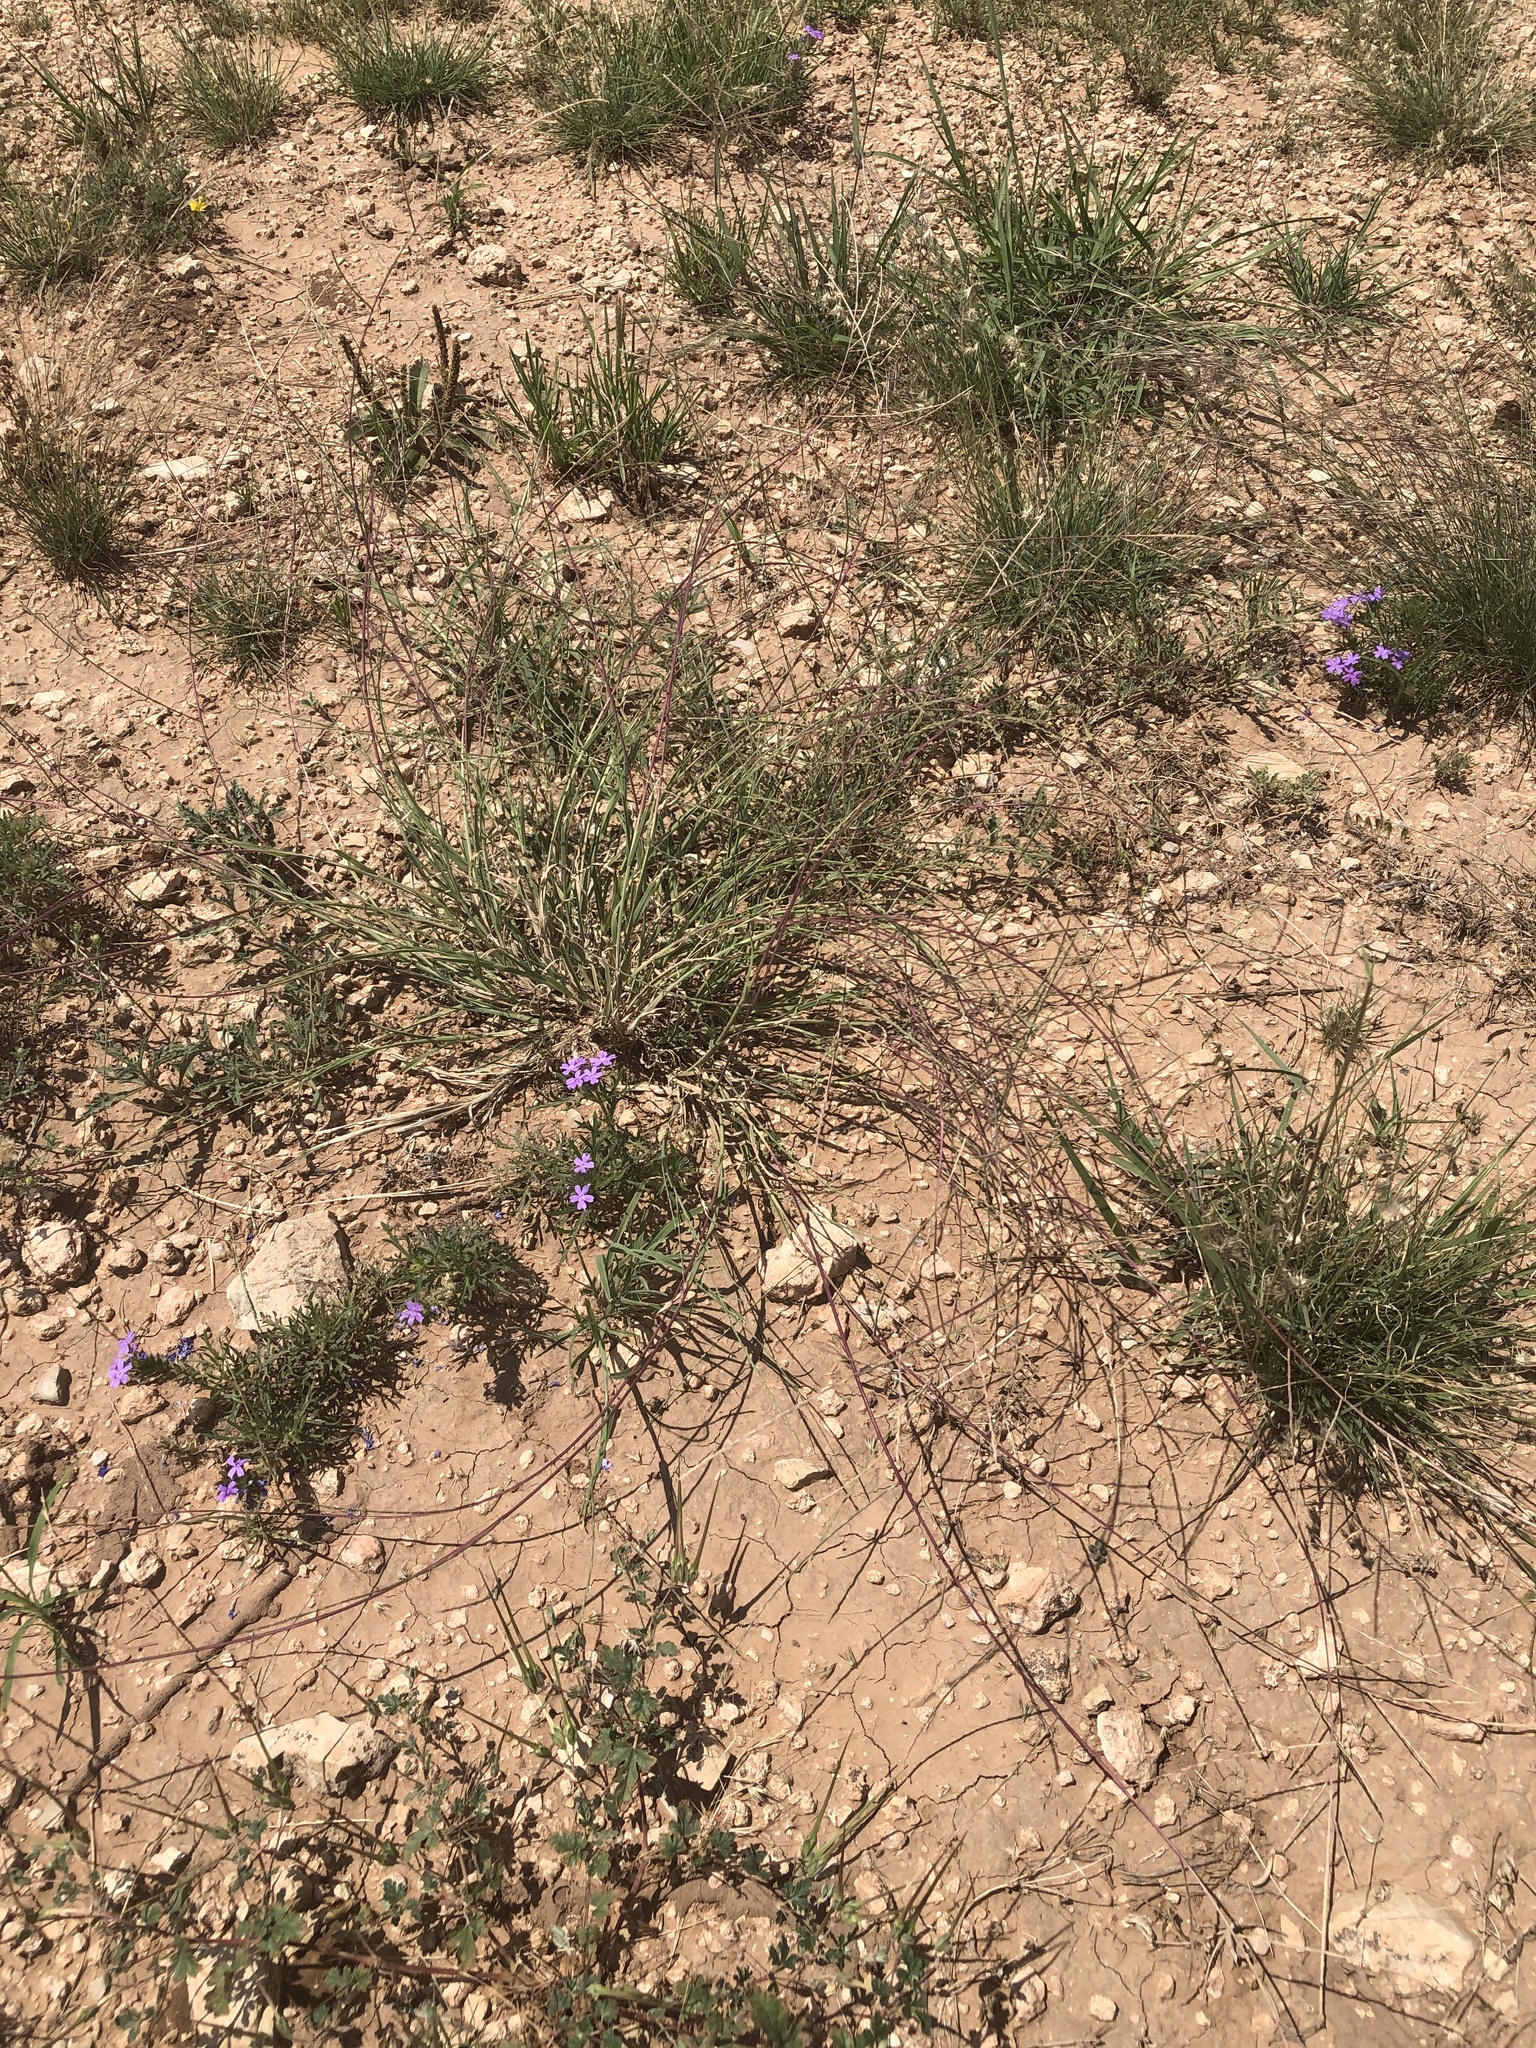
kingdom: Plantae
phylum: Tracheophyta
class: Liliopsida
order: Poales
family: Poaceae
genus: Muhlenbergia
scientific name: Muhlenbergia paniculata
